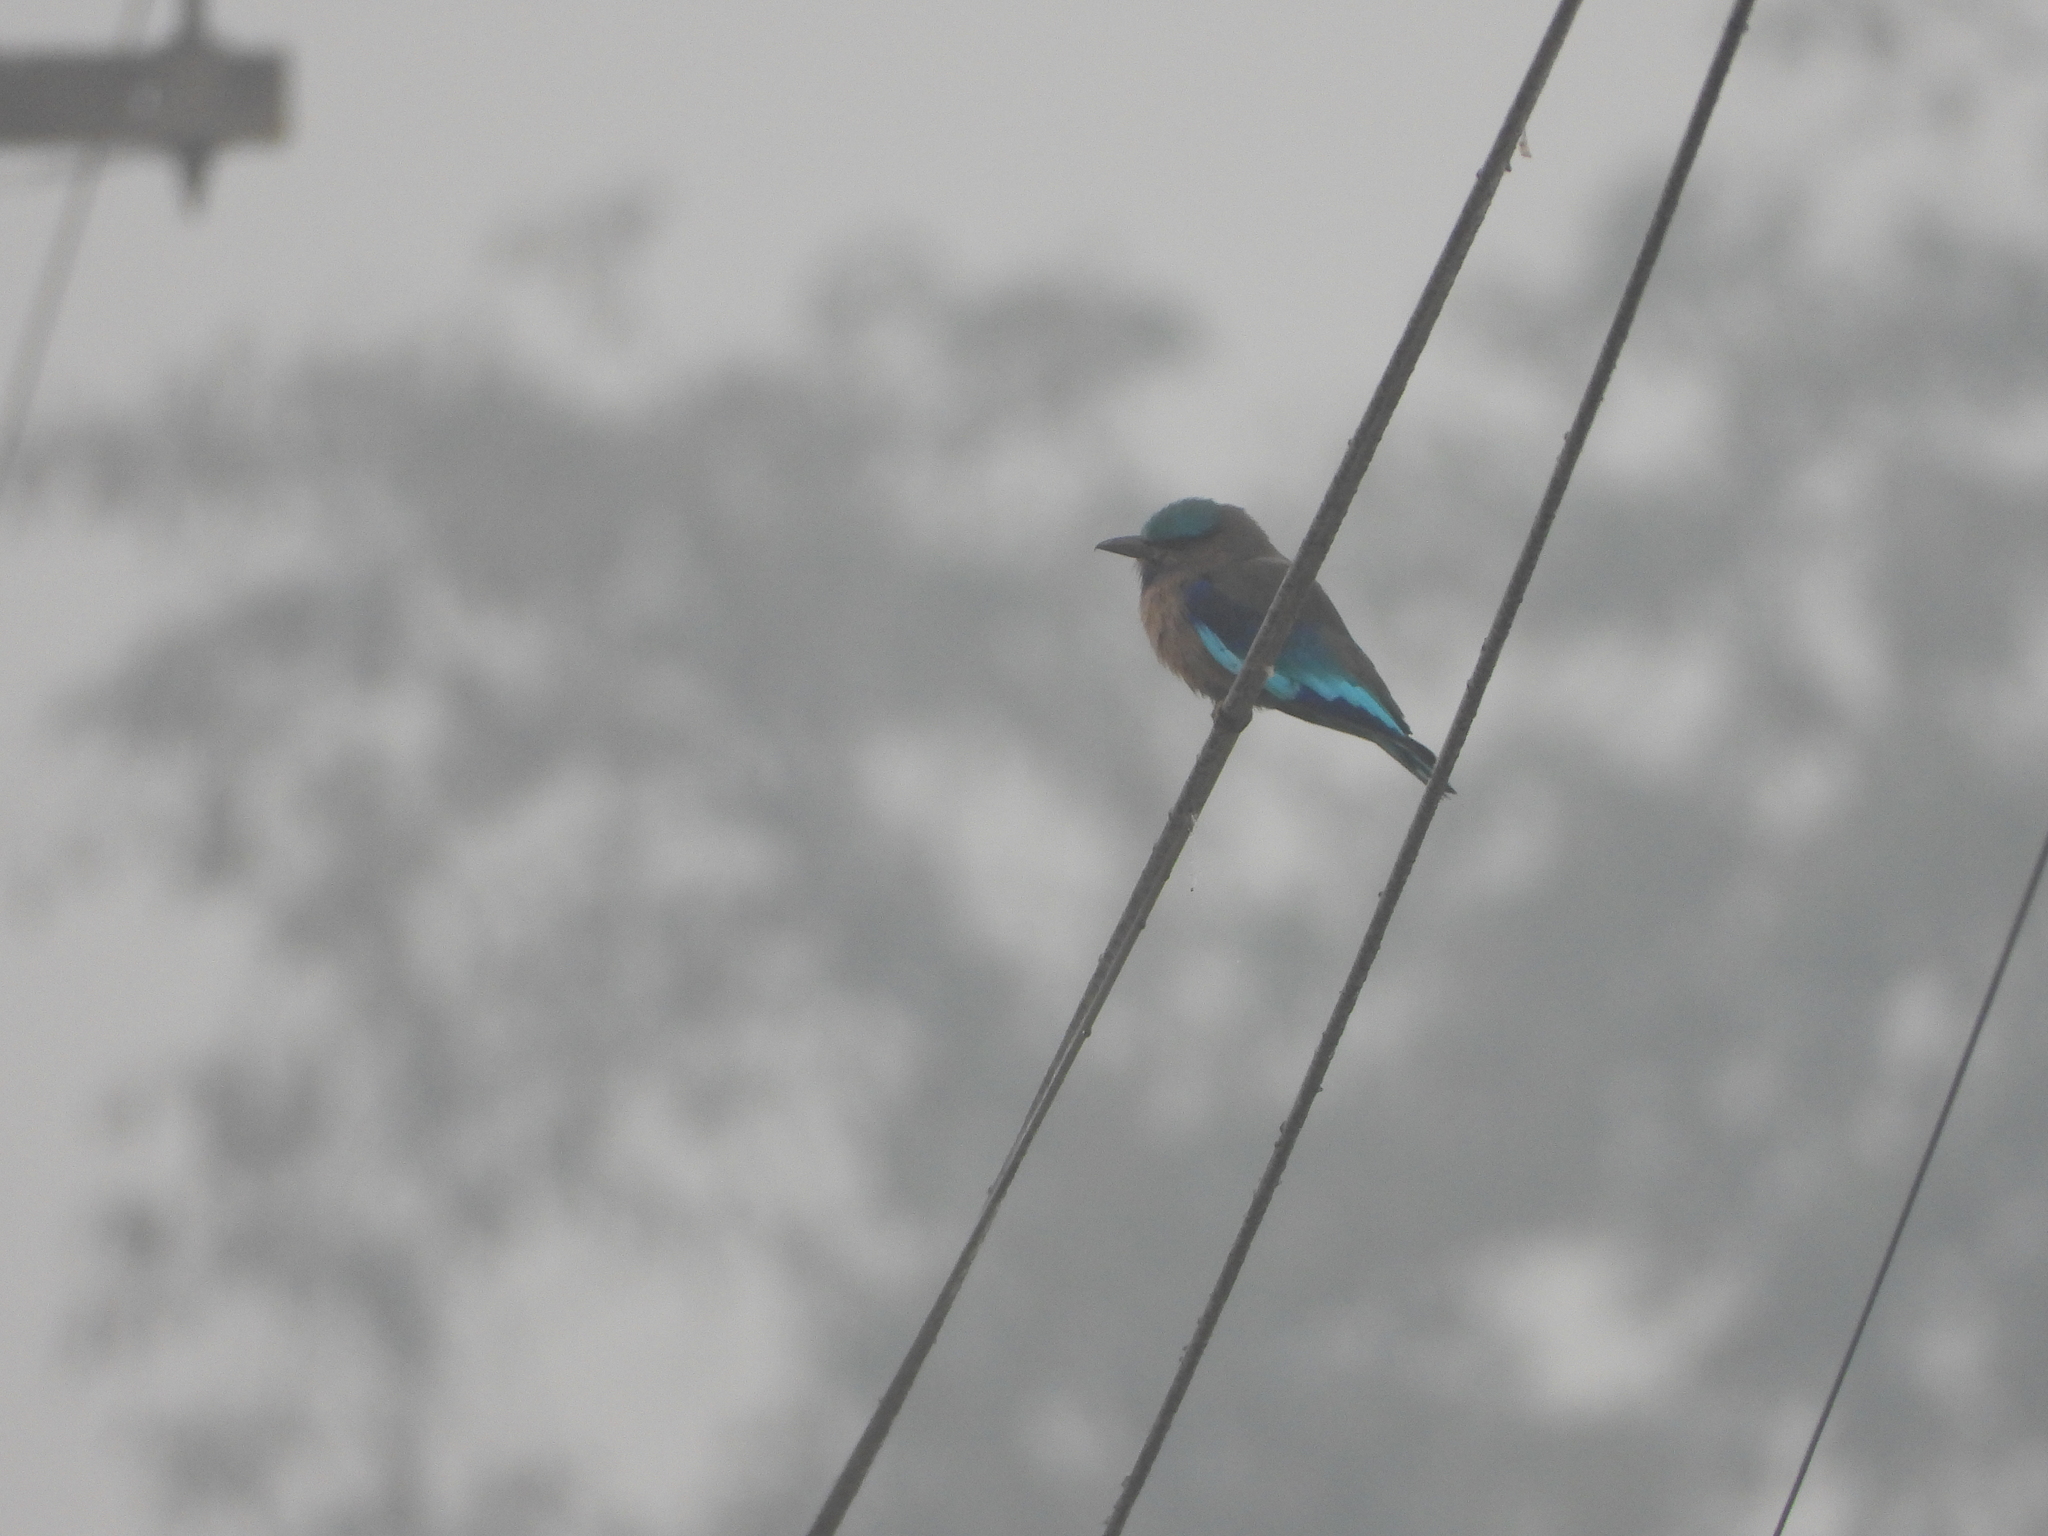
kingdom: Animalia
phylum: Chordata
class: Aves
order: Coraciiformes
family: Coraciidae
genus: Coracias
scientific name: Coracias affinis
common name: Indochinese roller
